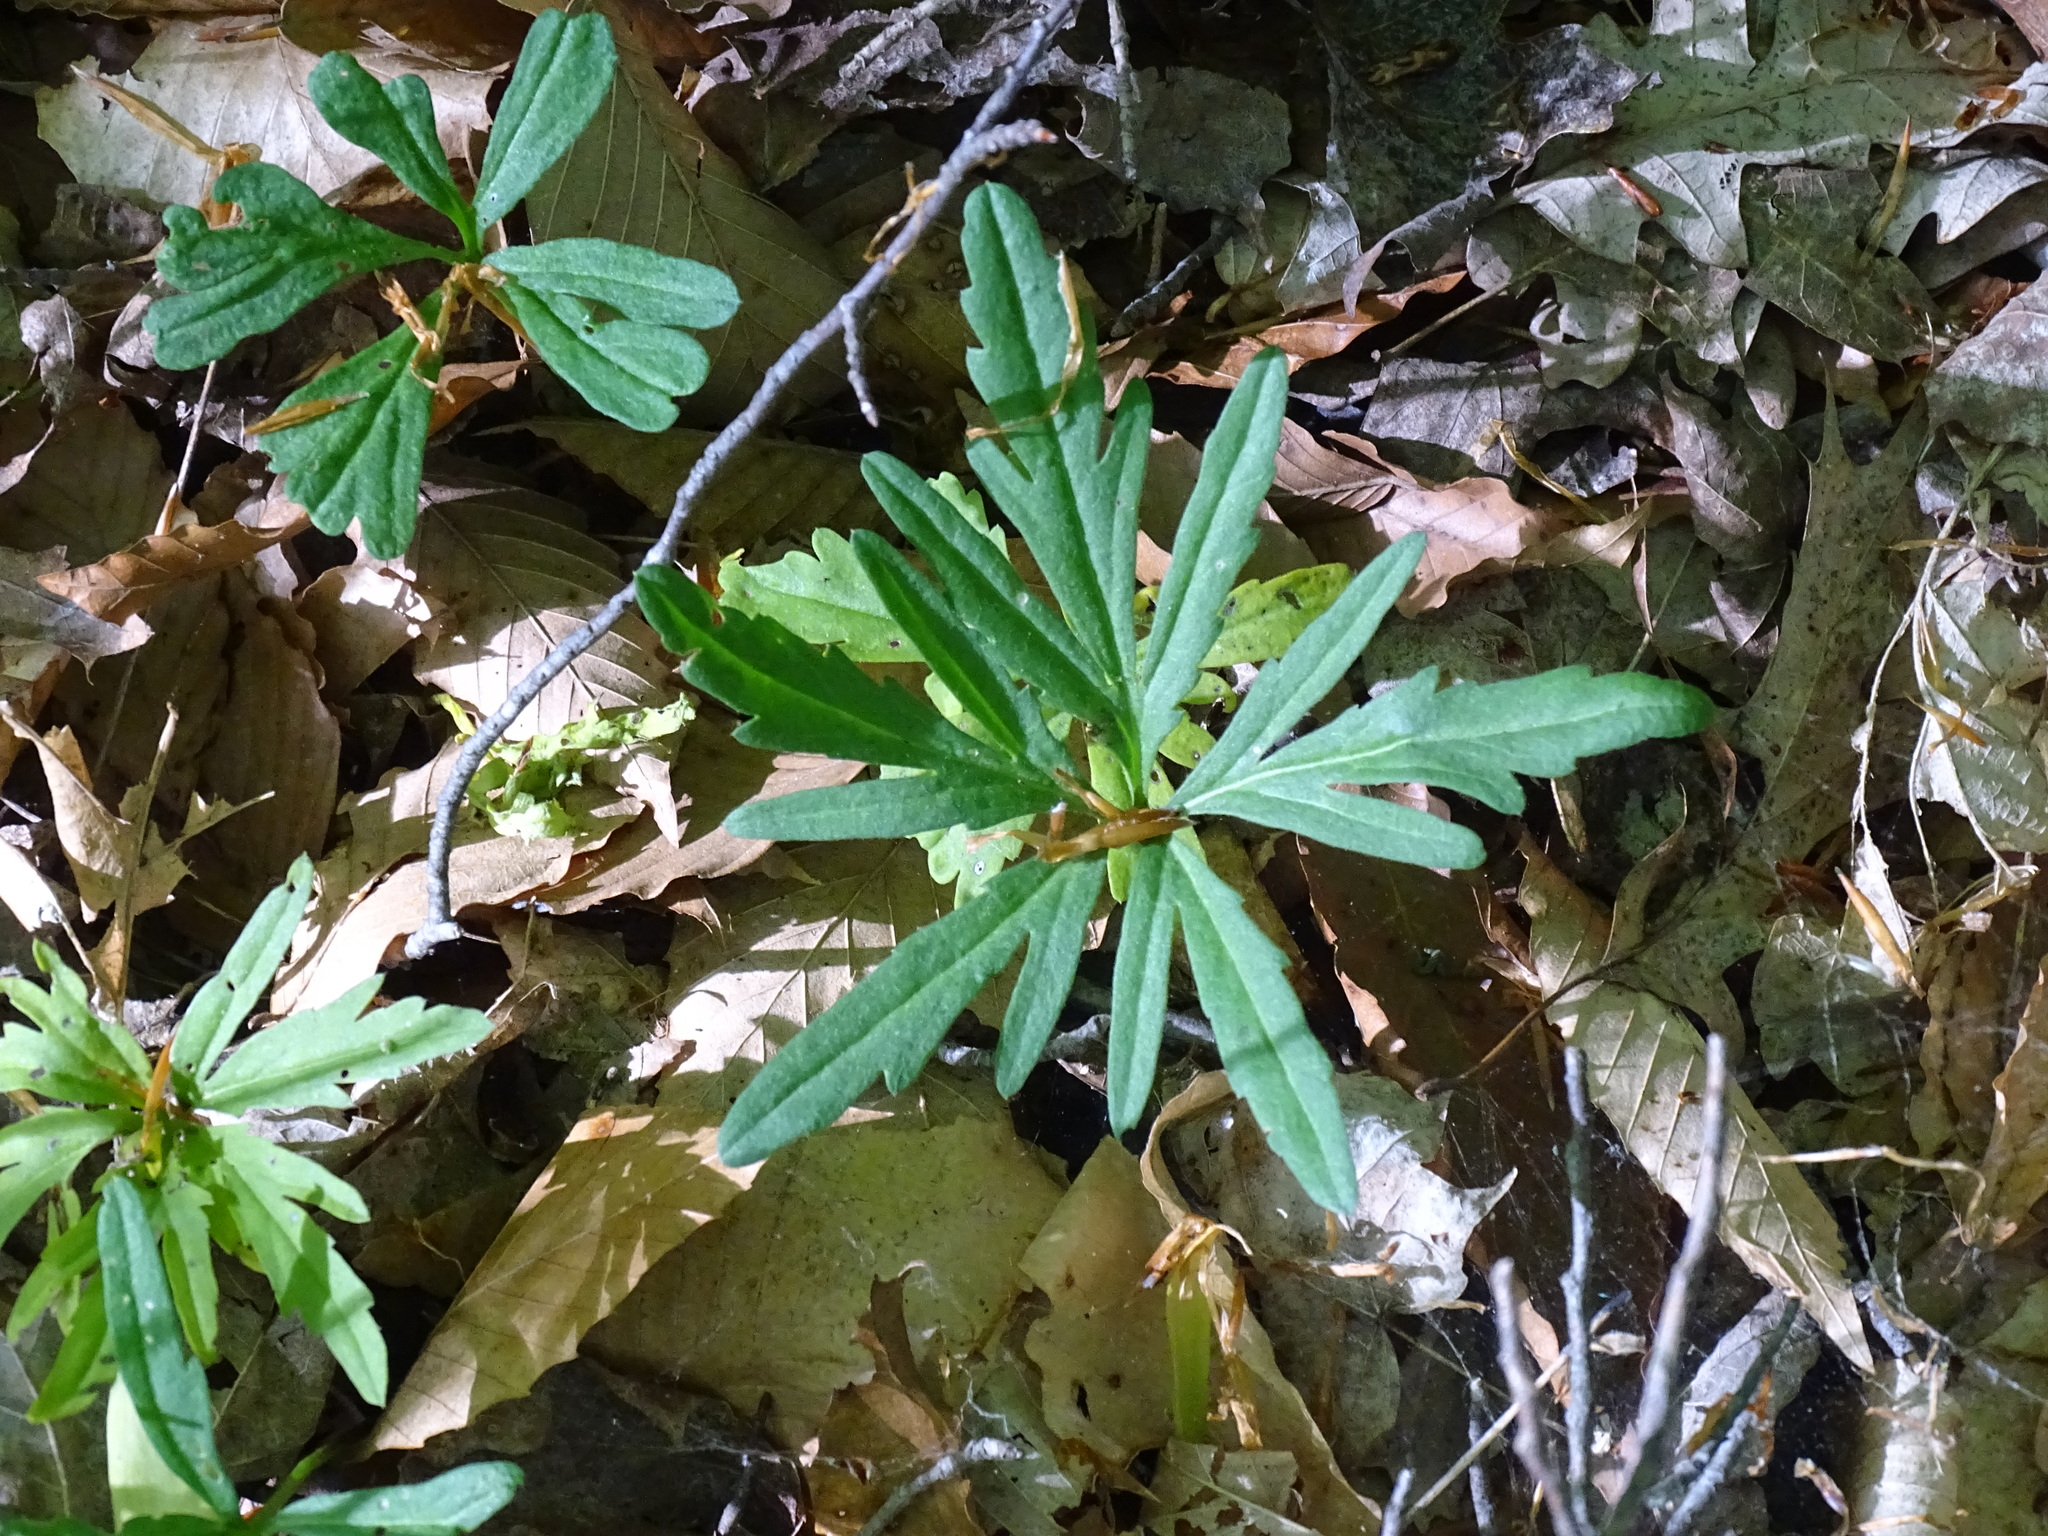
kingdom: Plantae
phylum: Tracheophyta
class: Magnoliopsida
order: Brassicales
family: Brassicaceae
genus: Cardamine
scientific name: Cardamine concatenata
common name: Cut-leaf toothcup
